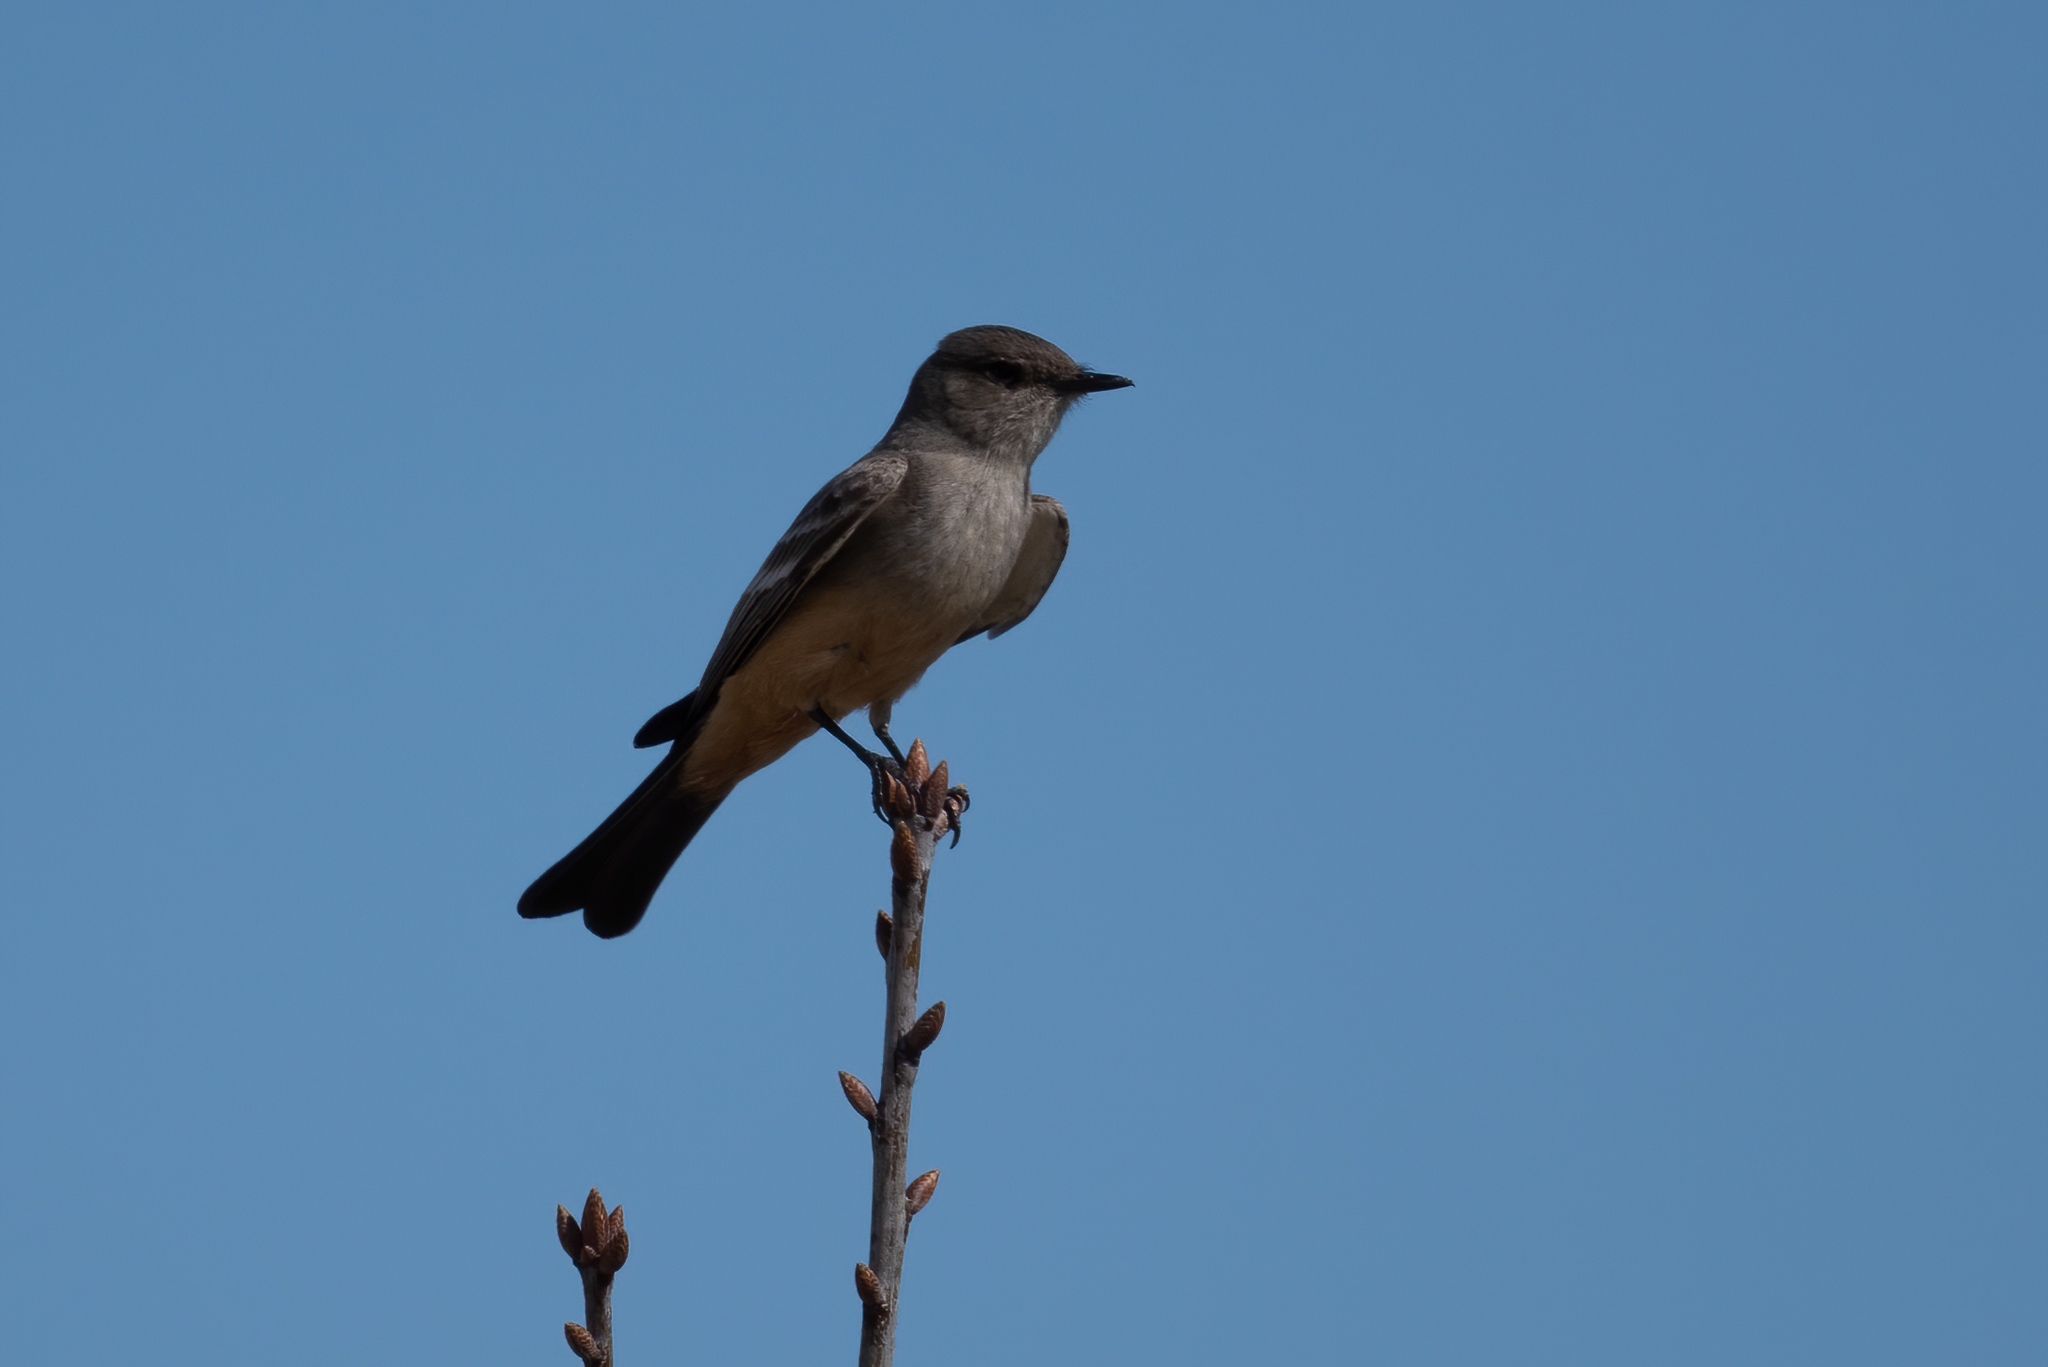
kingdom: Animalia
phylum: Chordata
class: Aves
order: Passeriformes
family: Tyrannidae
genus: Sayornis
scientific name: Sayornis saya
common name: Say's phoebe
